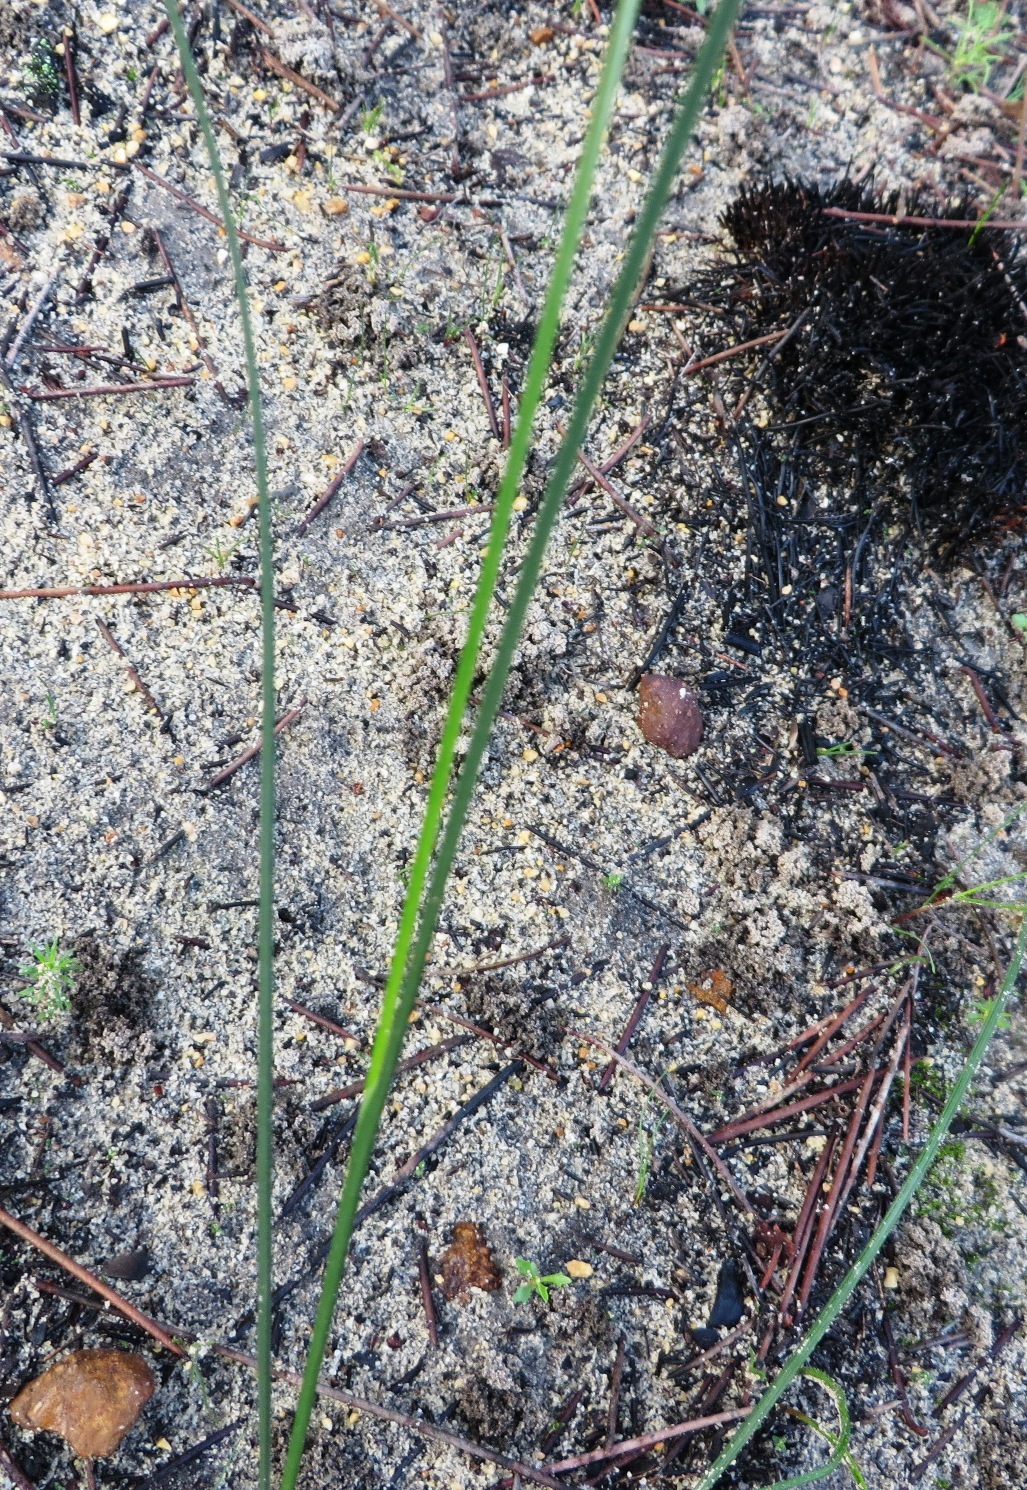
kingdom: Plantae
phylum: Tracheophyta
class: Liliopsida
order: Asparagales
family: Iridaceae
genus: Ixia
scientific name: Ixia micrandra
